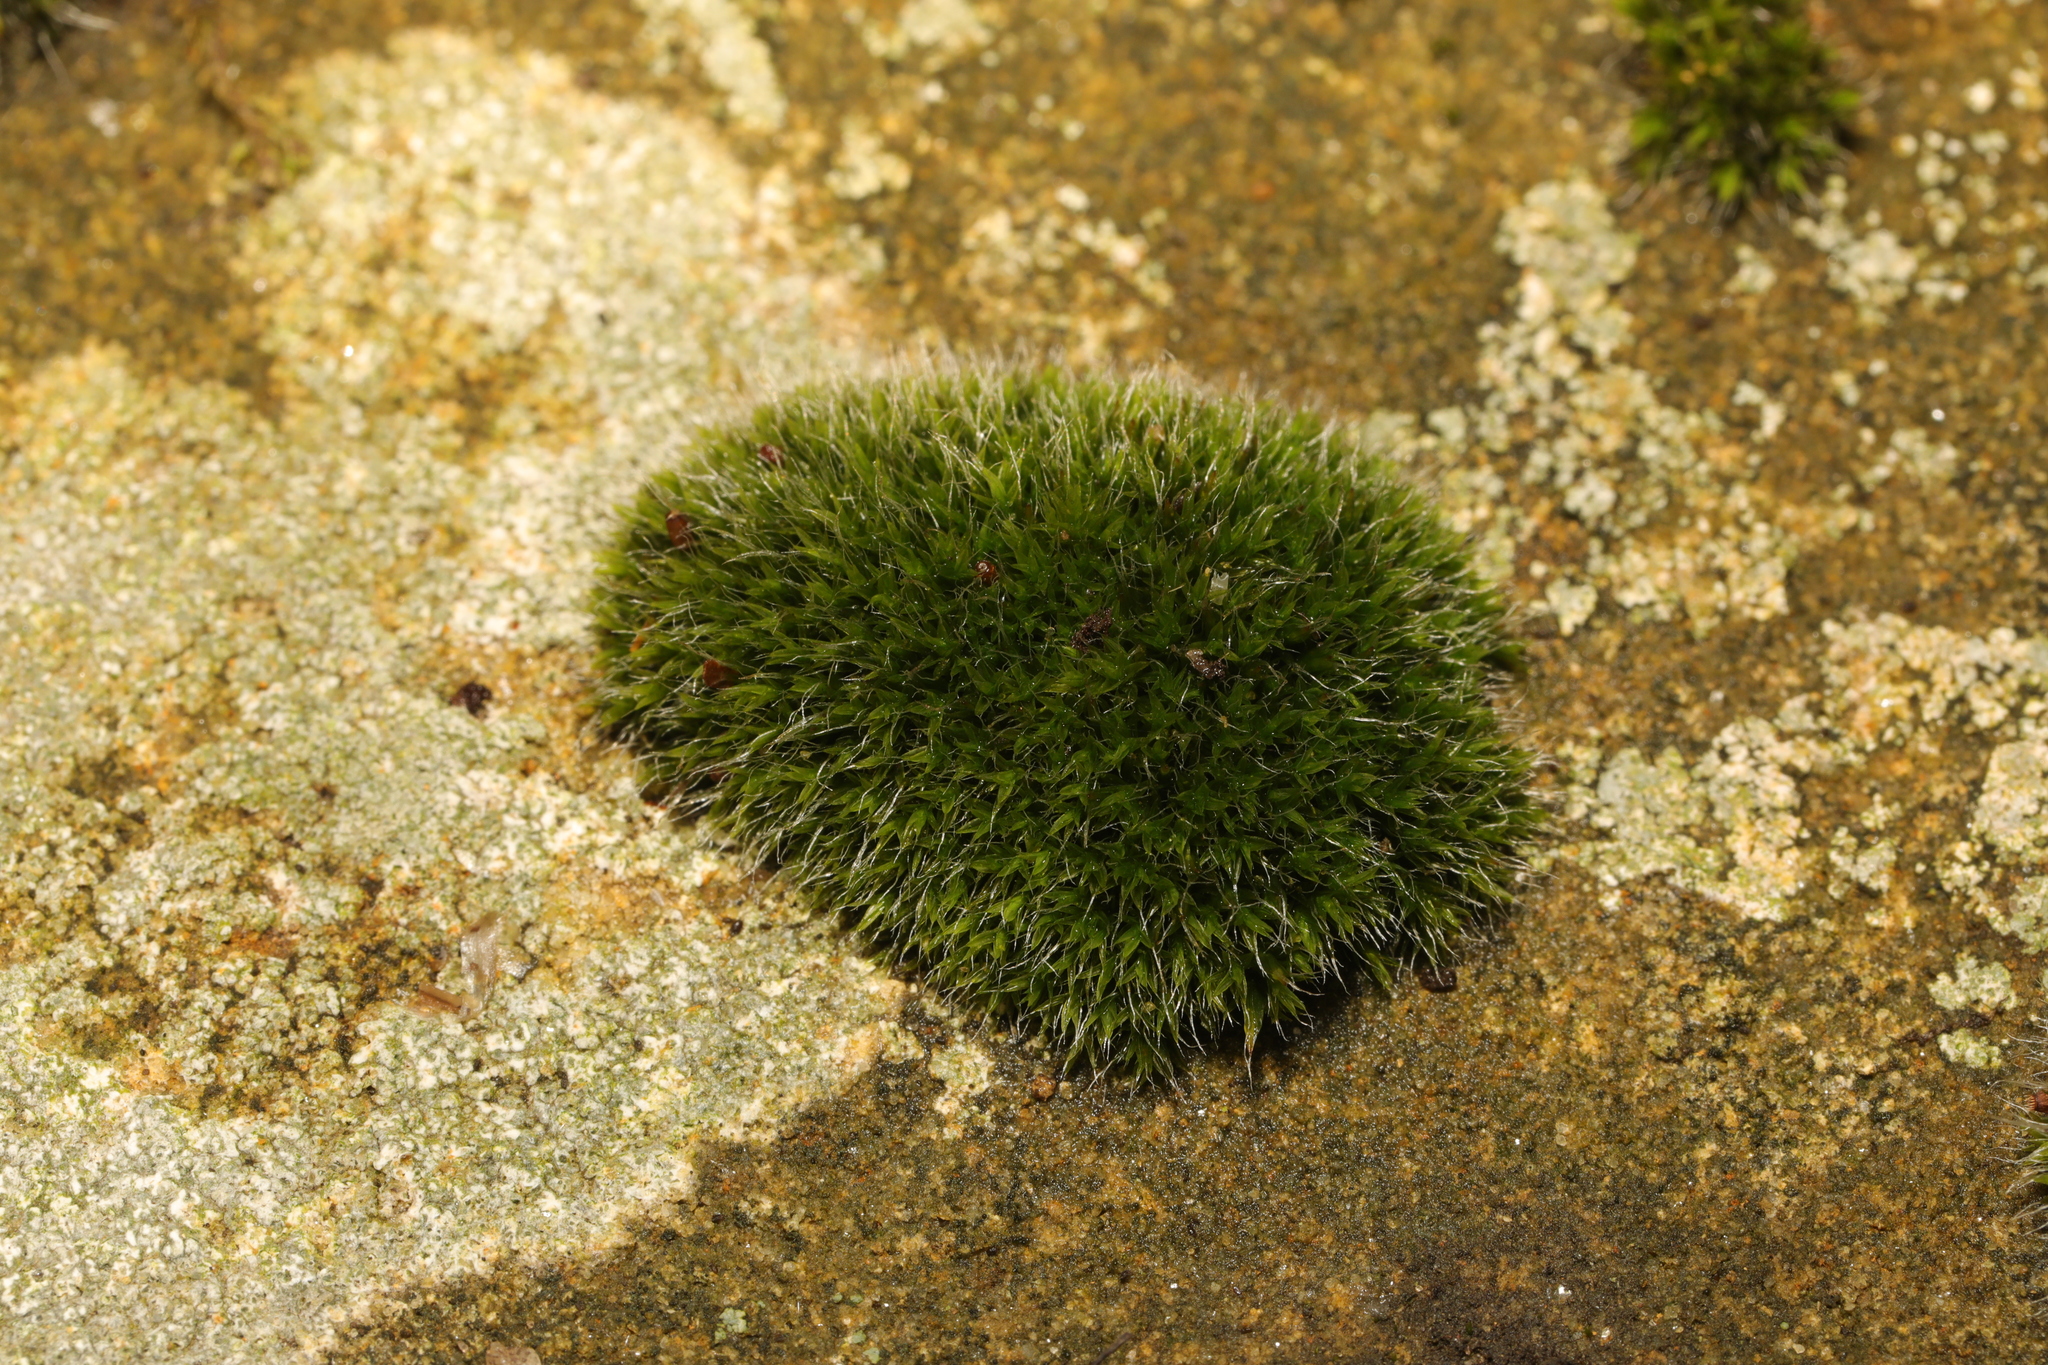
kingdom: Plantae
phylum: Bryophyta
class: Bryopsida
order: Grimmiales
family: Grimmiaceae
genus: Grimmia
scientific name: Grimmia pulvinata
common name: Grey-cushioned grimmia
